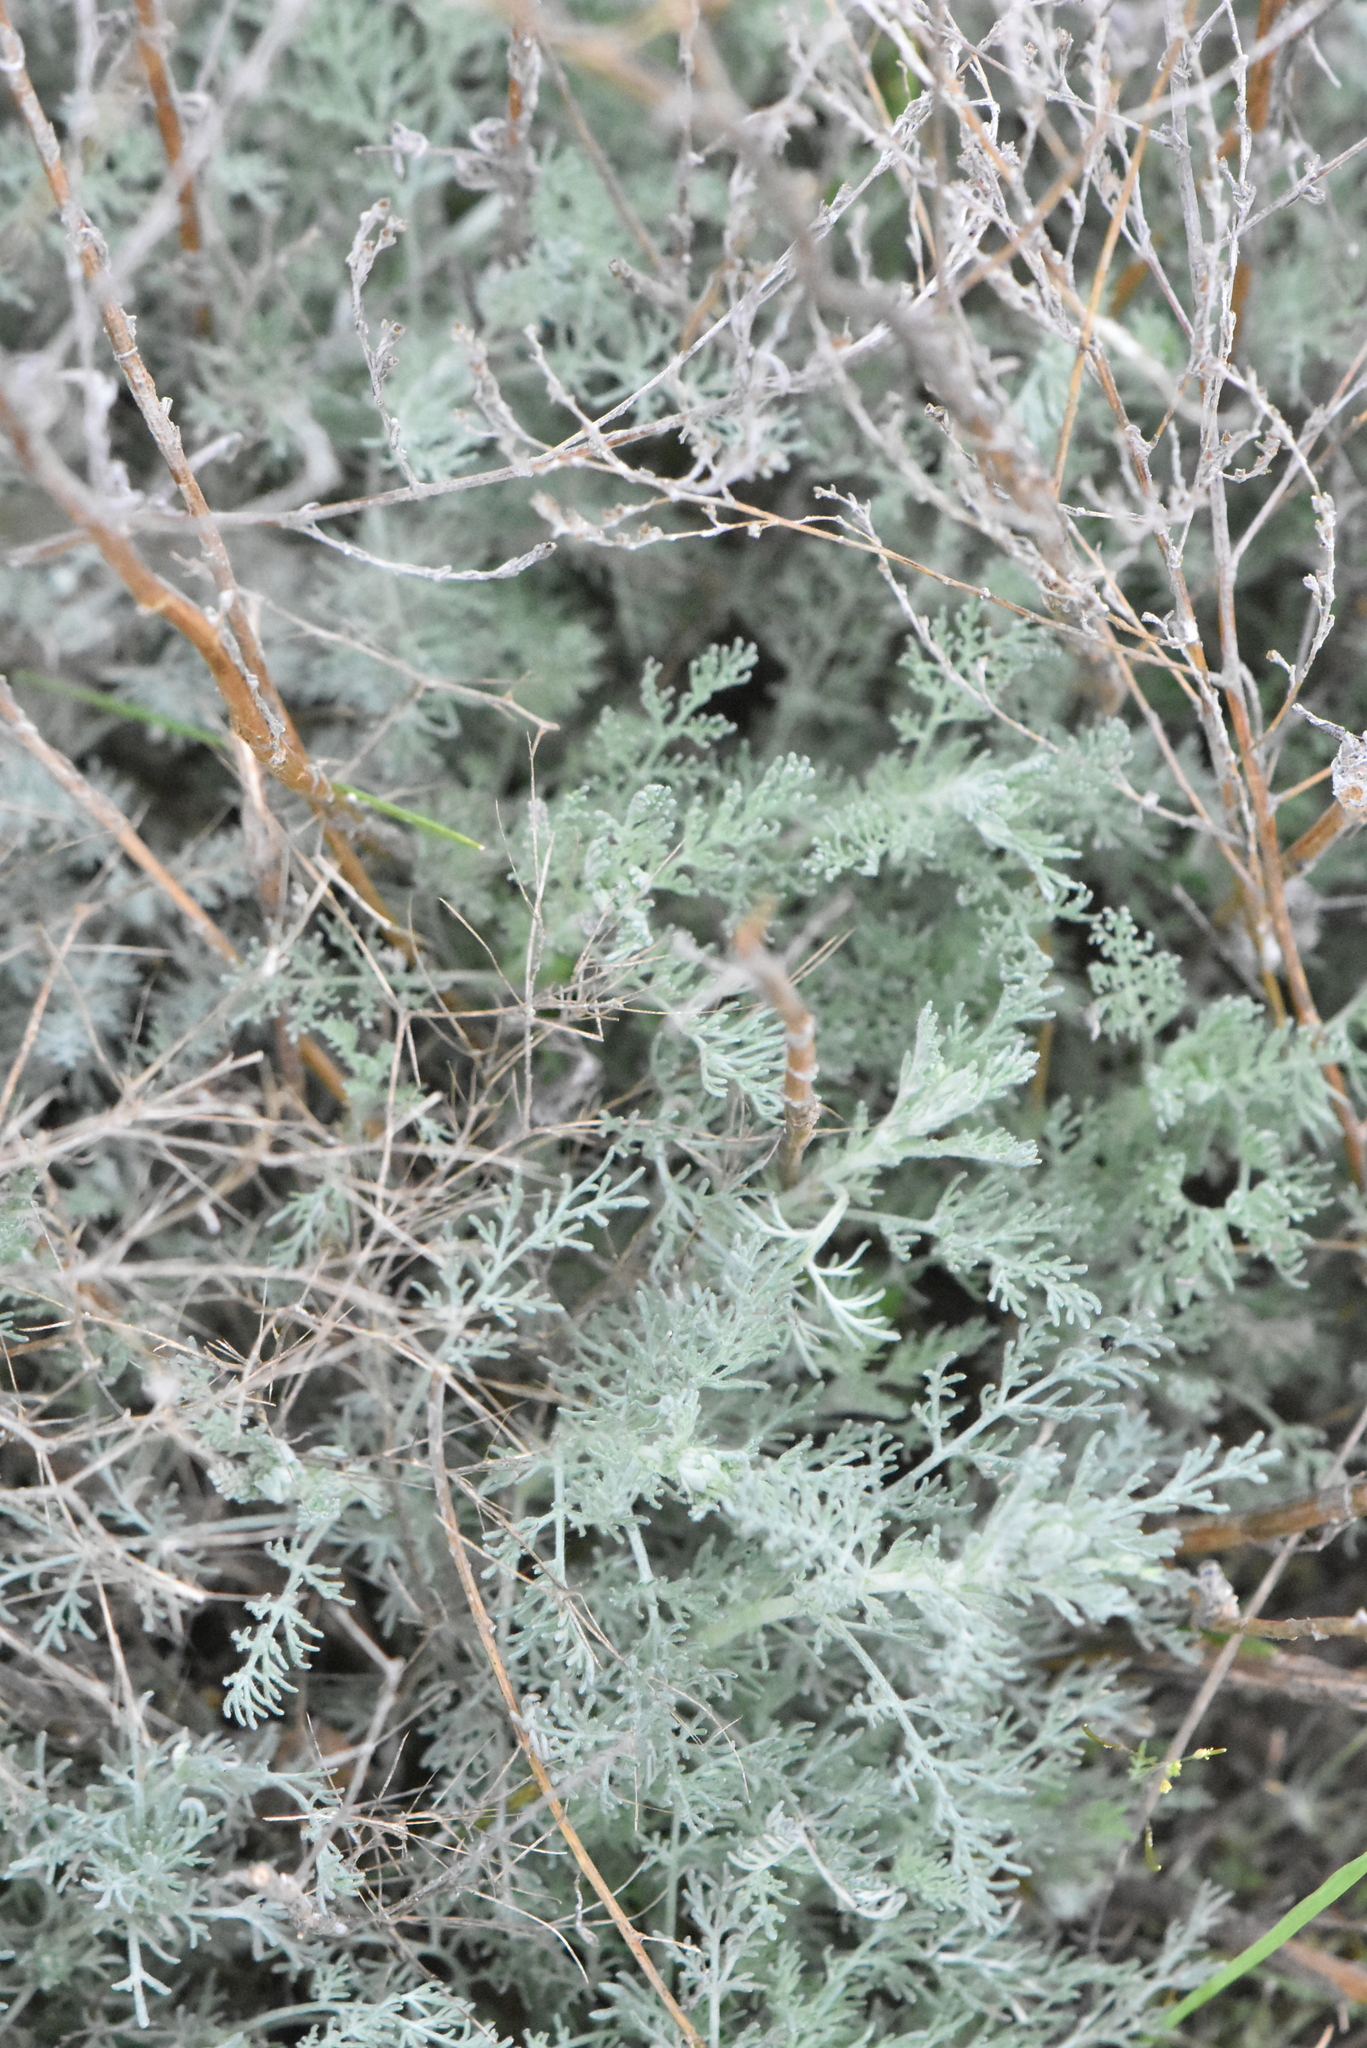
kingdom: Plantae
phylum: Tracheophyta
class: Magnoliopsida
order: Asterales
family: Asteraceae
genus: Artemisia
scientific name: Artemisia austriaca
